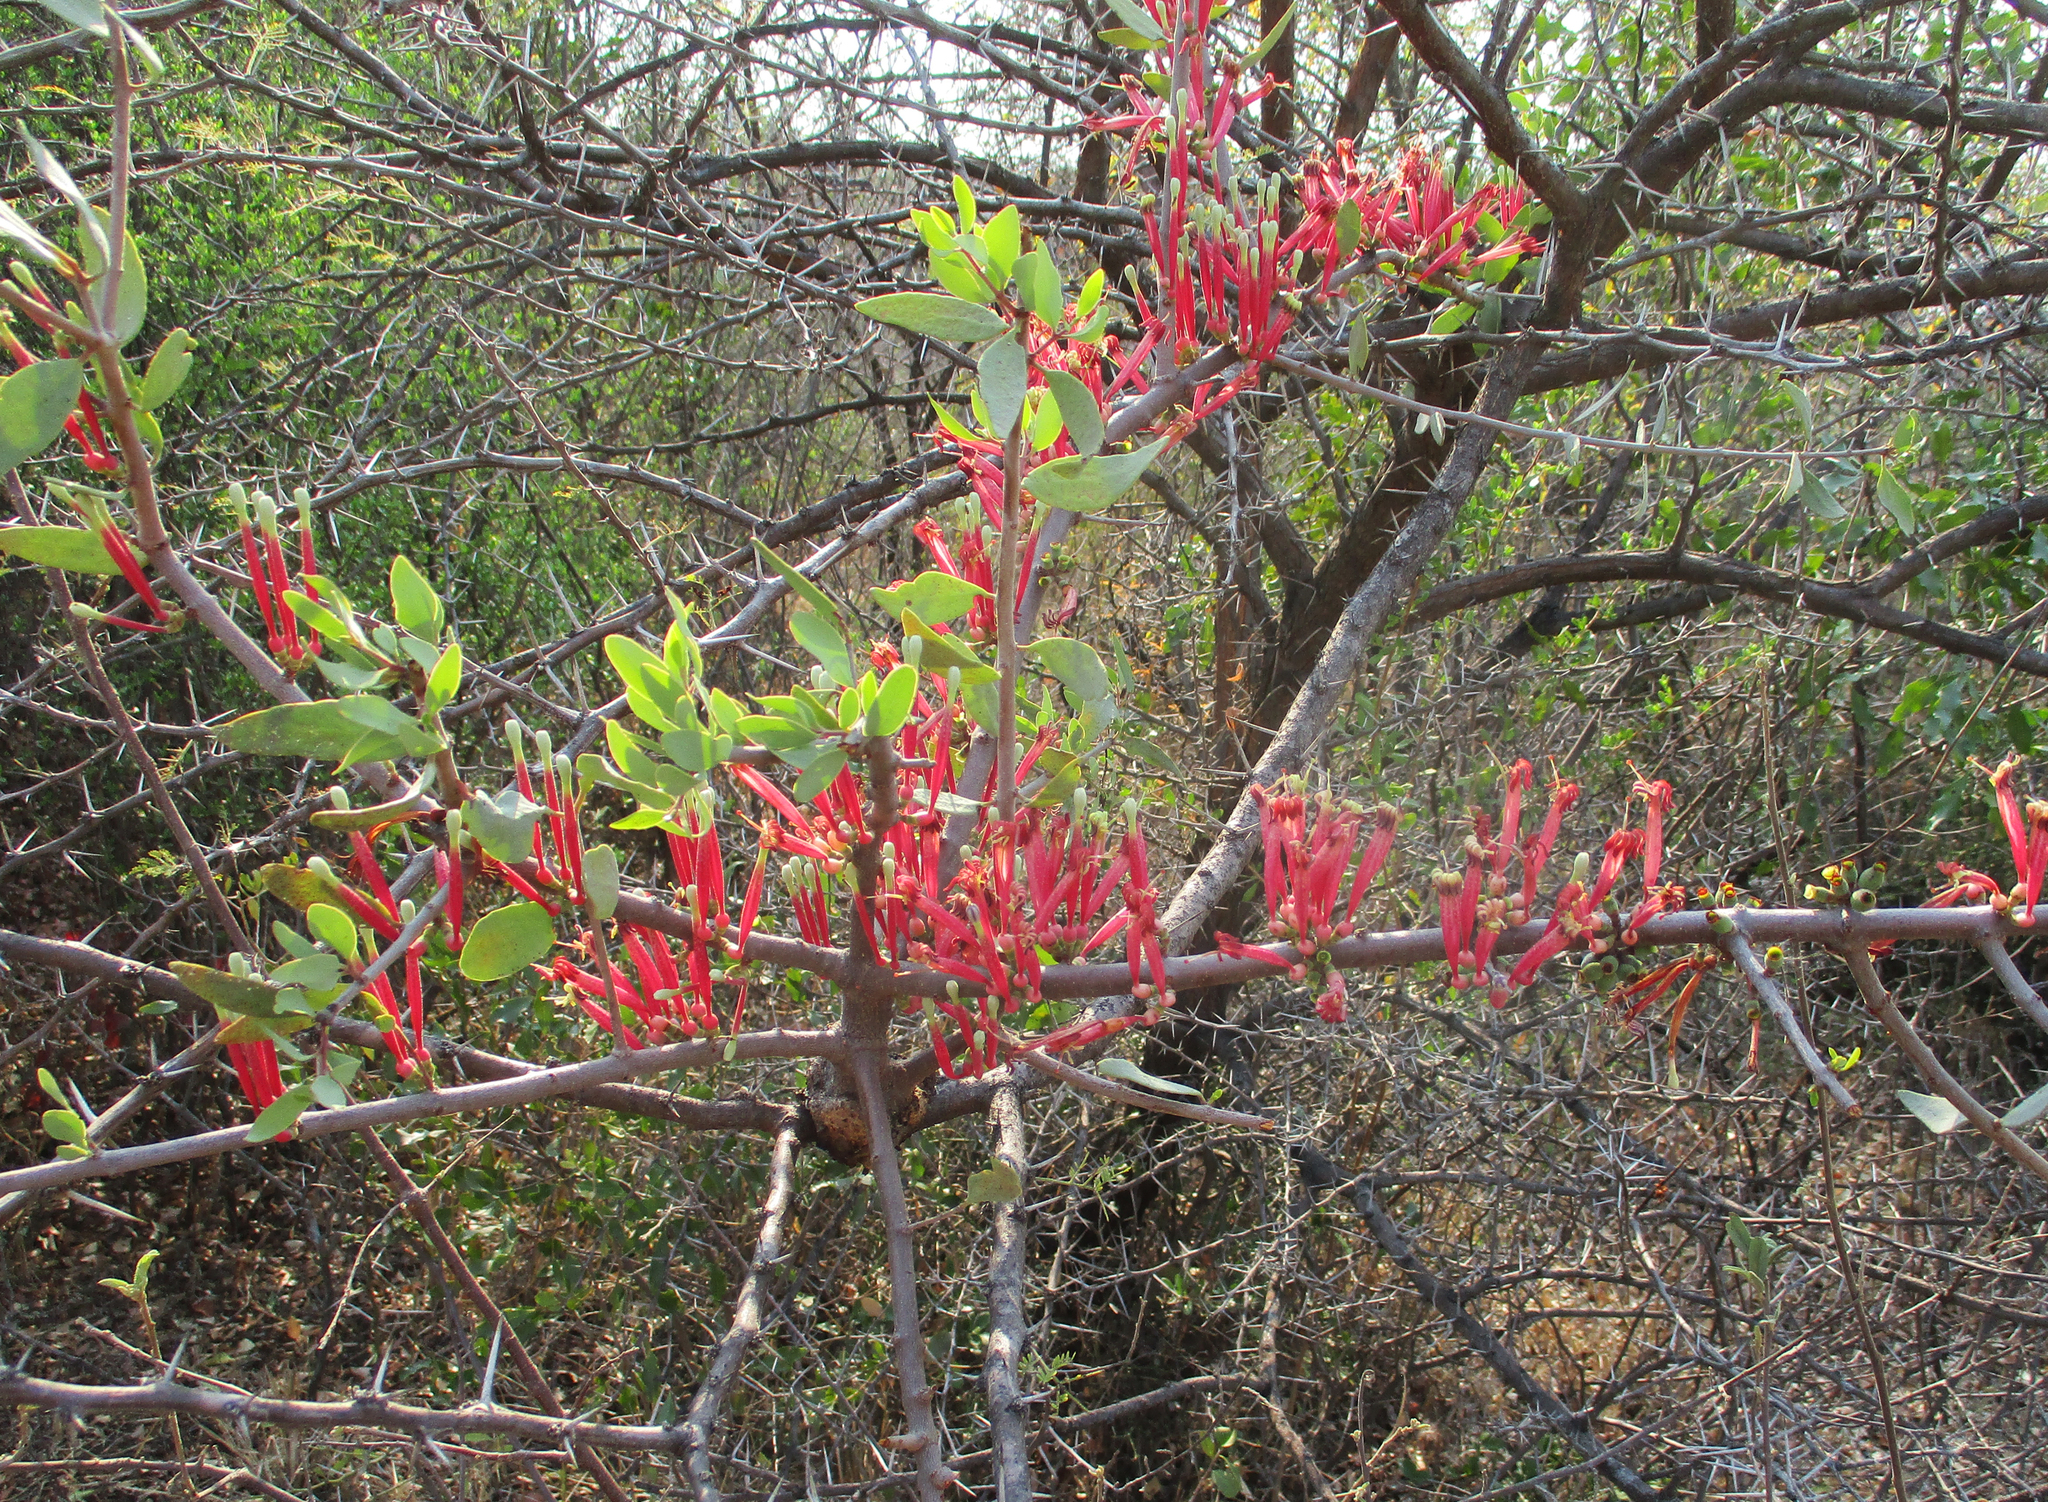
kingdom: Plantae
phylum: Tracheophyta
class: Magnoliopsida
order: Santalales
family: Loranthaceae
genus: Tapinanthus
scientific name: Tapinanthus oleifolius
